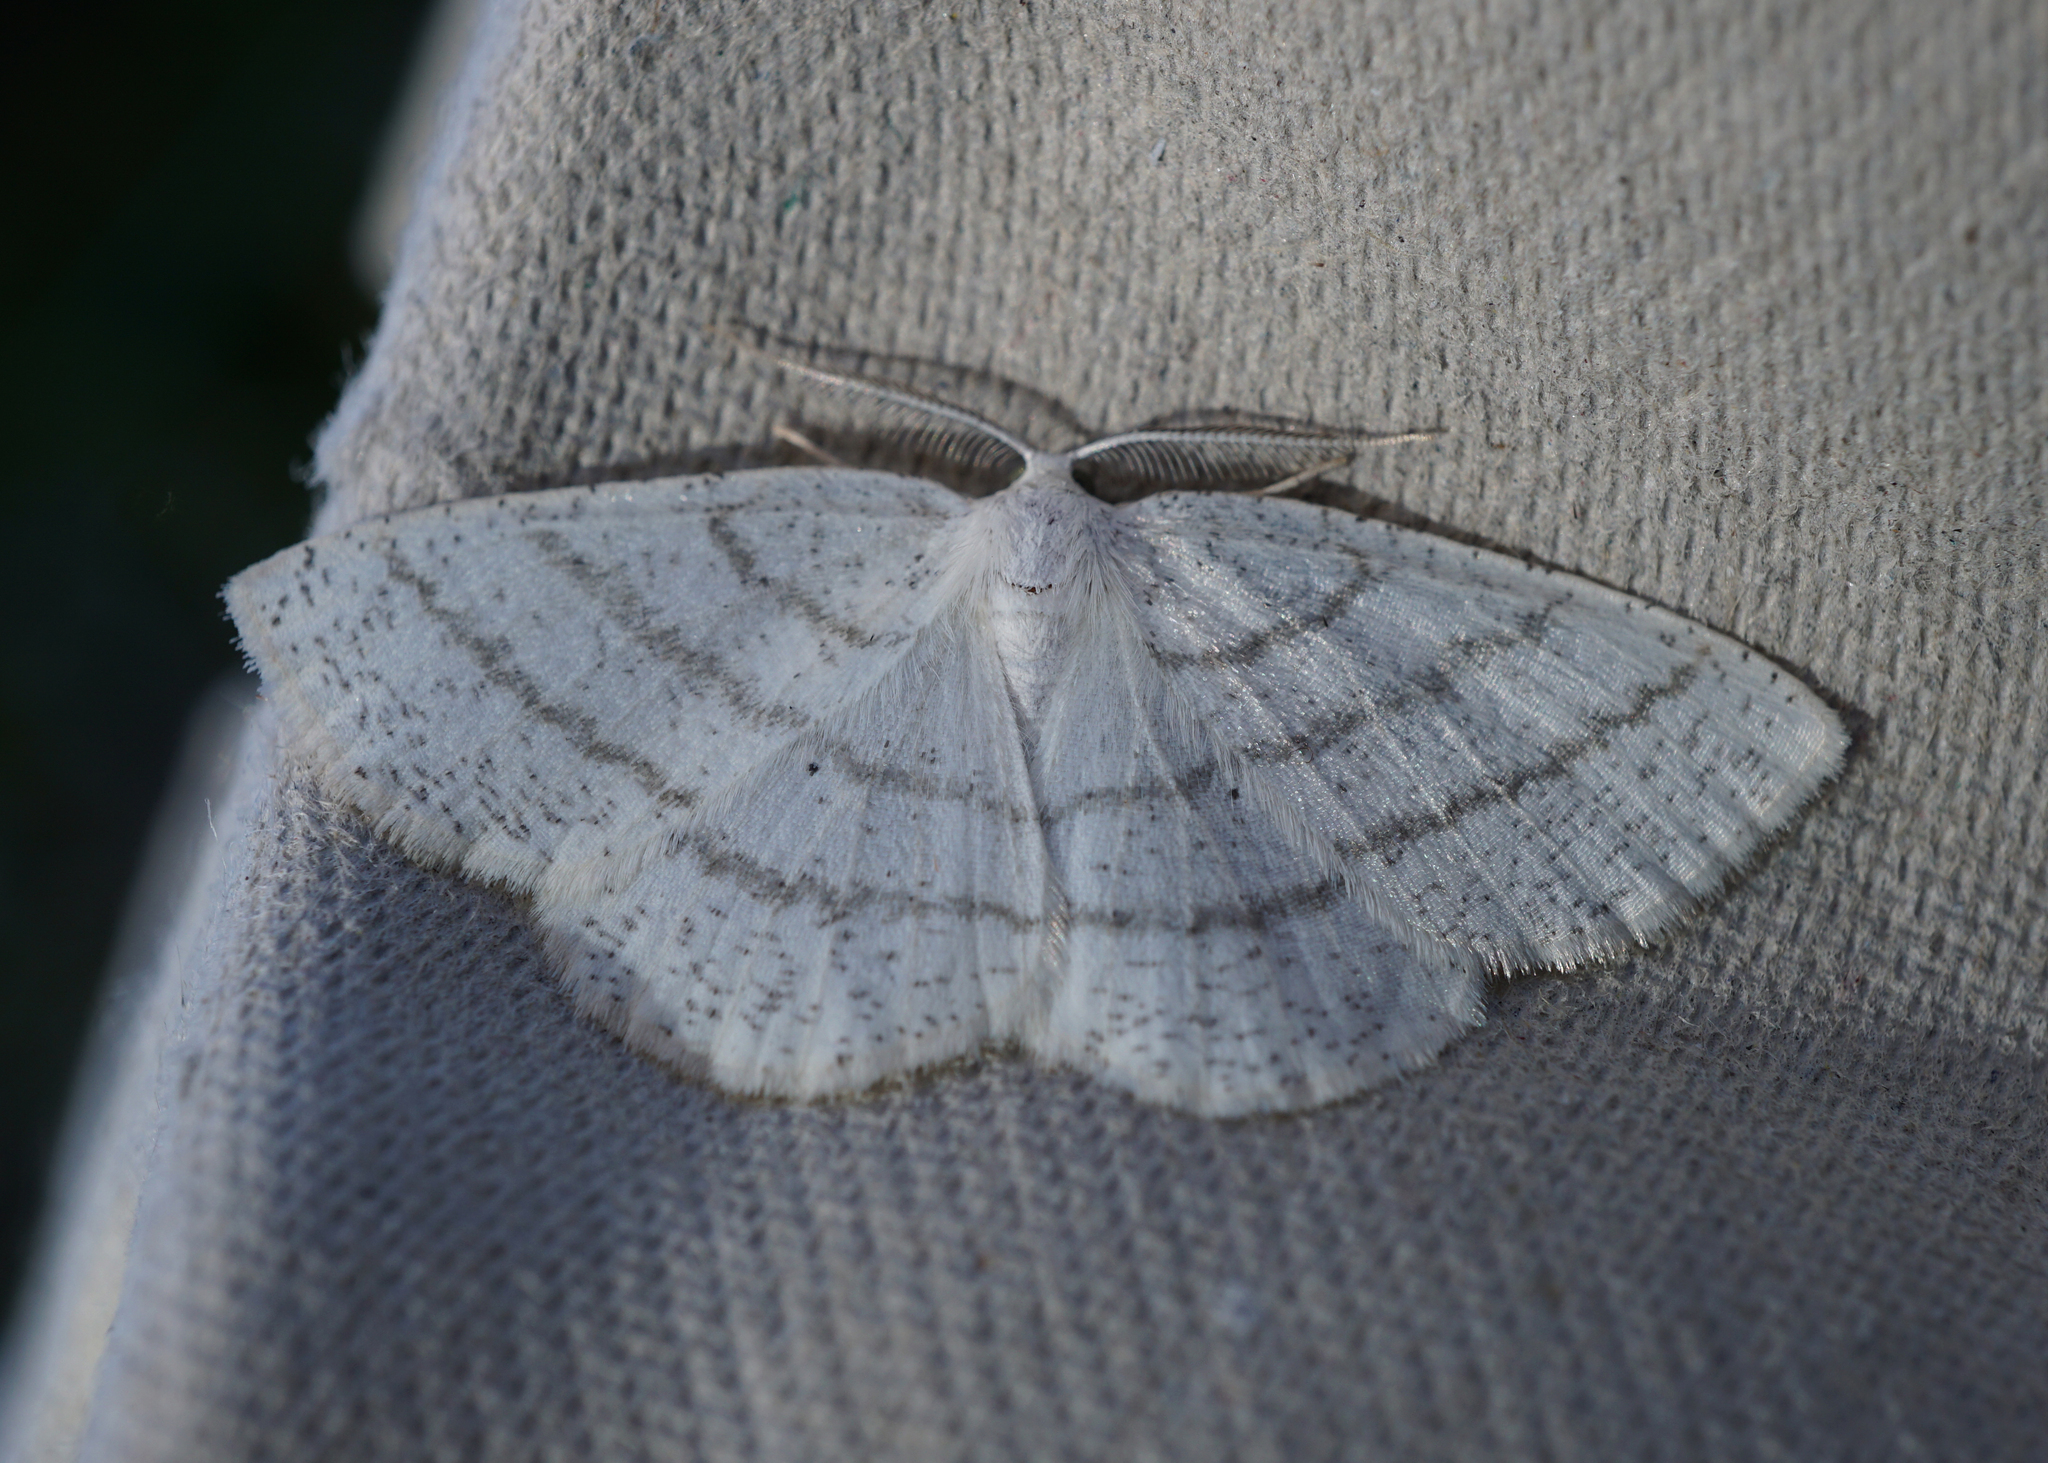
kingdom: Animalia
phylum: Arthropoda
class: Insecta
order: Lepidoptera
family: Geometridae
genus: Cabera
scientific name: Cabera pusaria
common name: Common white wave
